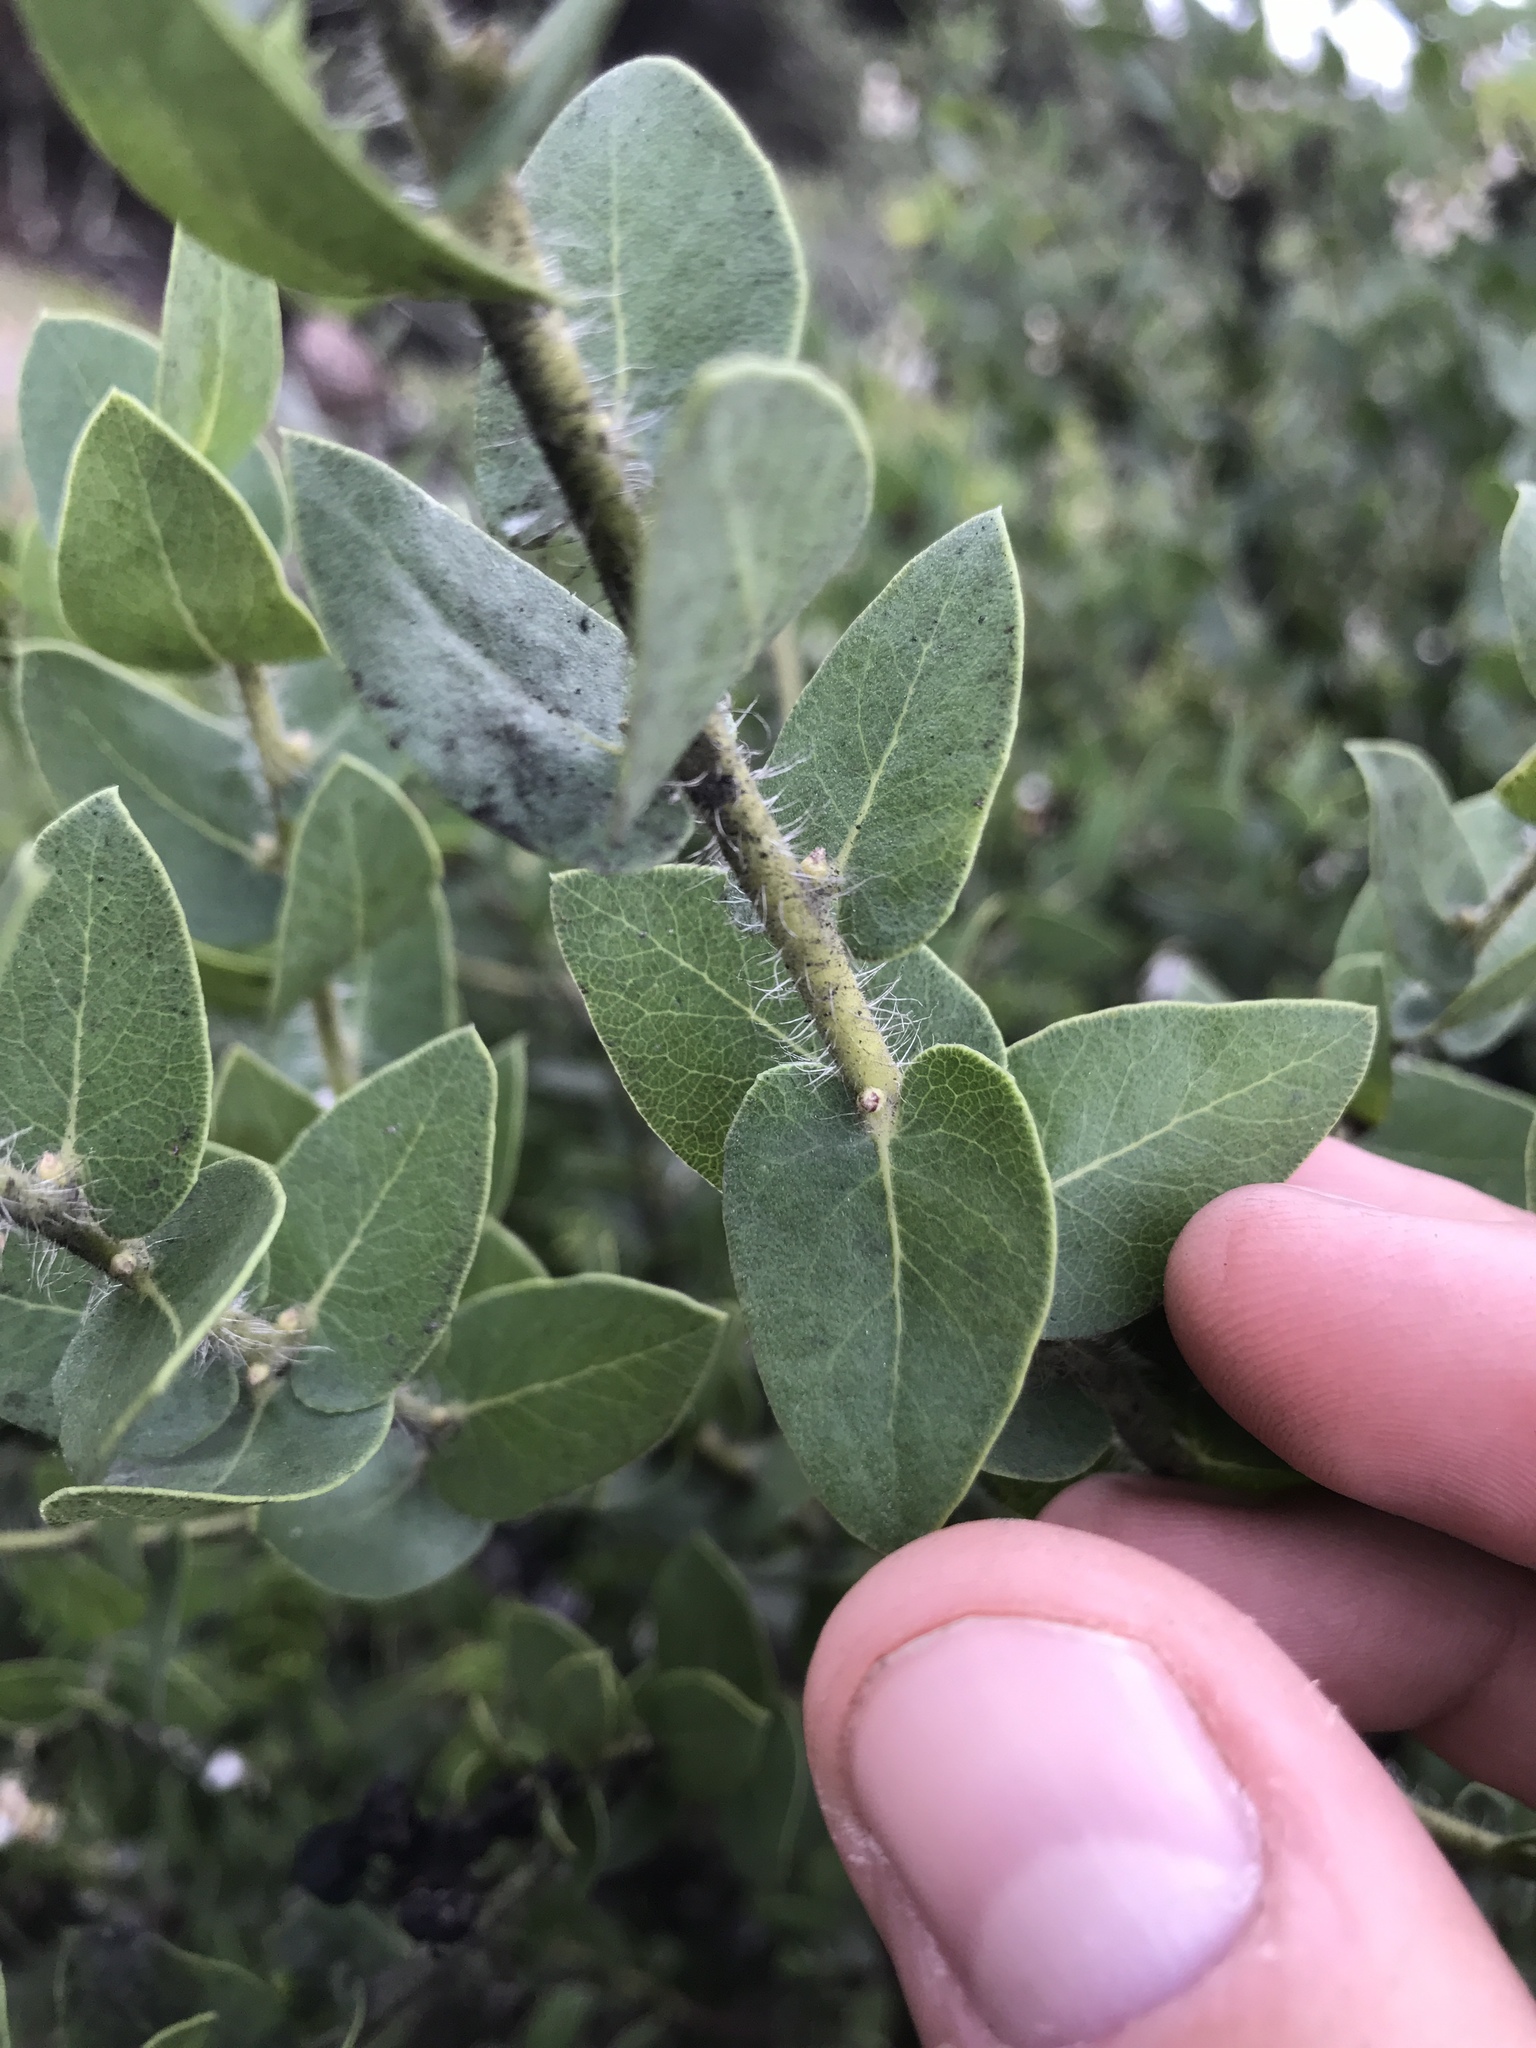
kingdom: Plantae
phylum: Tracheophyta
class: Magnoliopsida
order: Ericales
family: Ericaceae
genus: Arctostaphylos
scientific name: Arctostaphylos purissima
